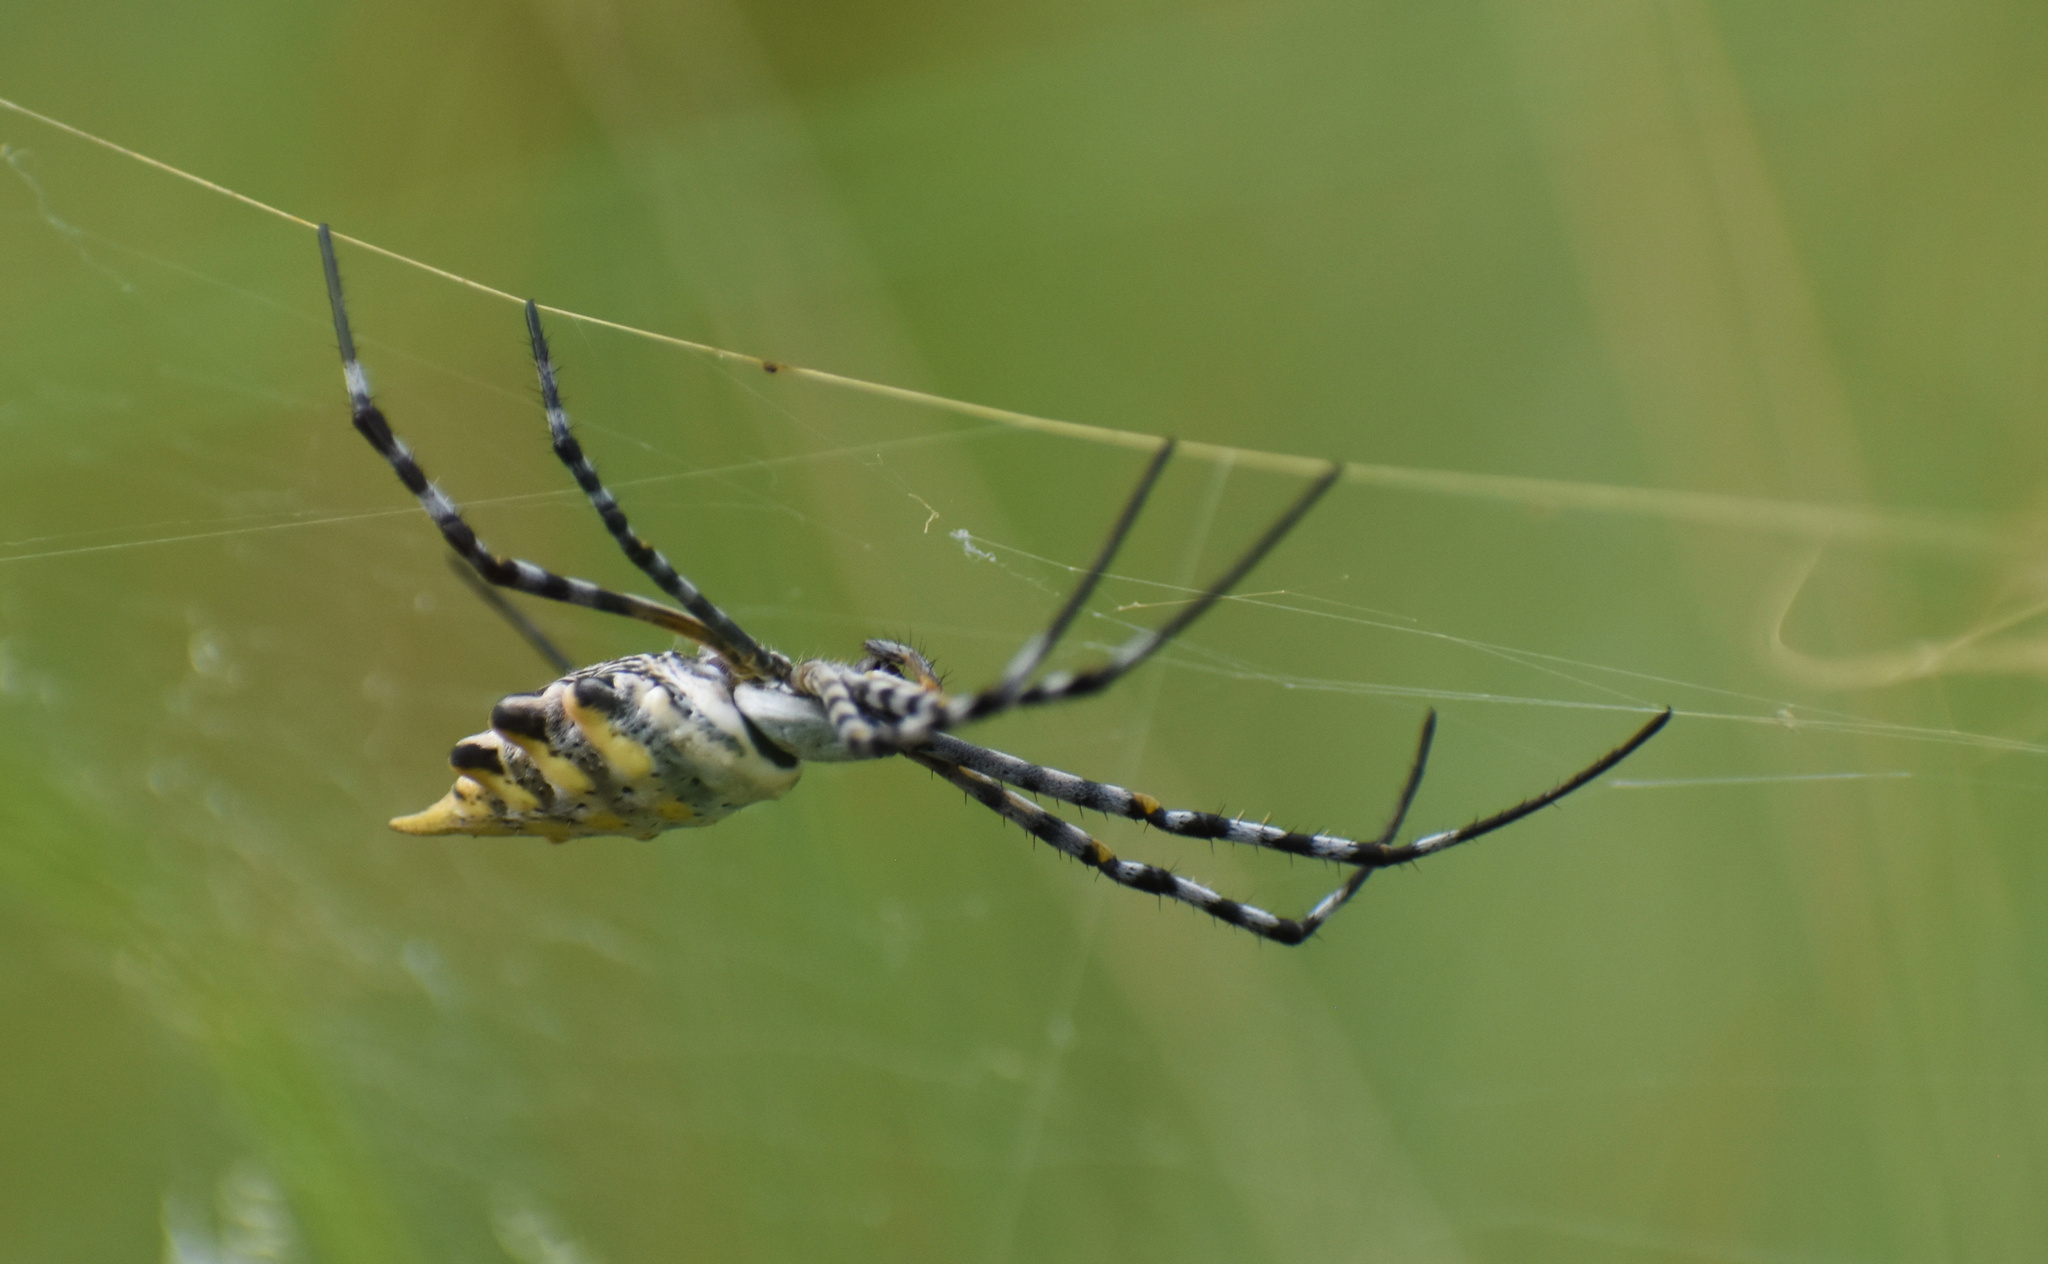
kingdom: Animalia
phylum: Arthropoda
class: Arachnida
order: Araneae
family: Araneidae
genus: Argiope
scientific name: Argiope australis
